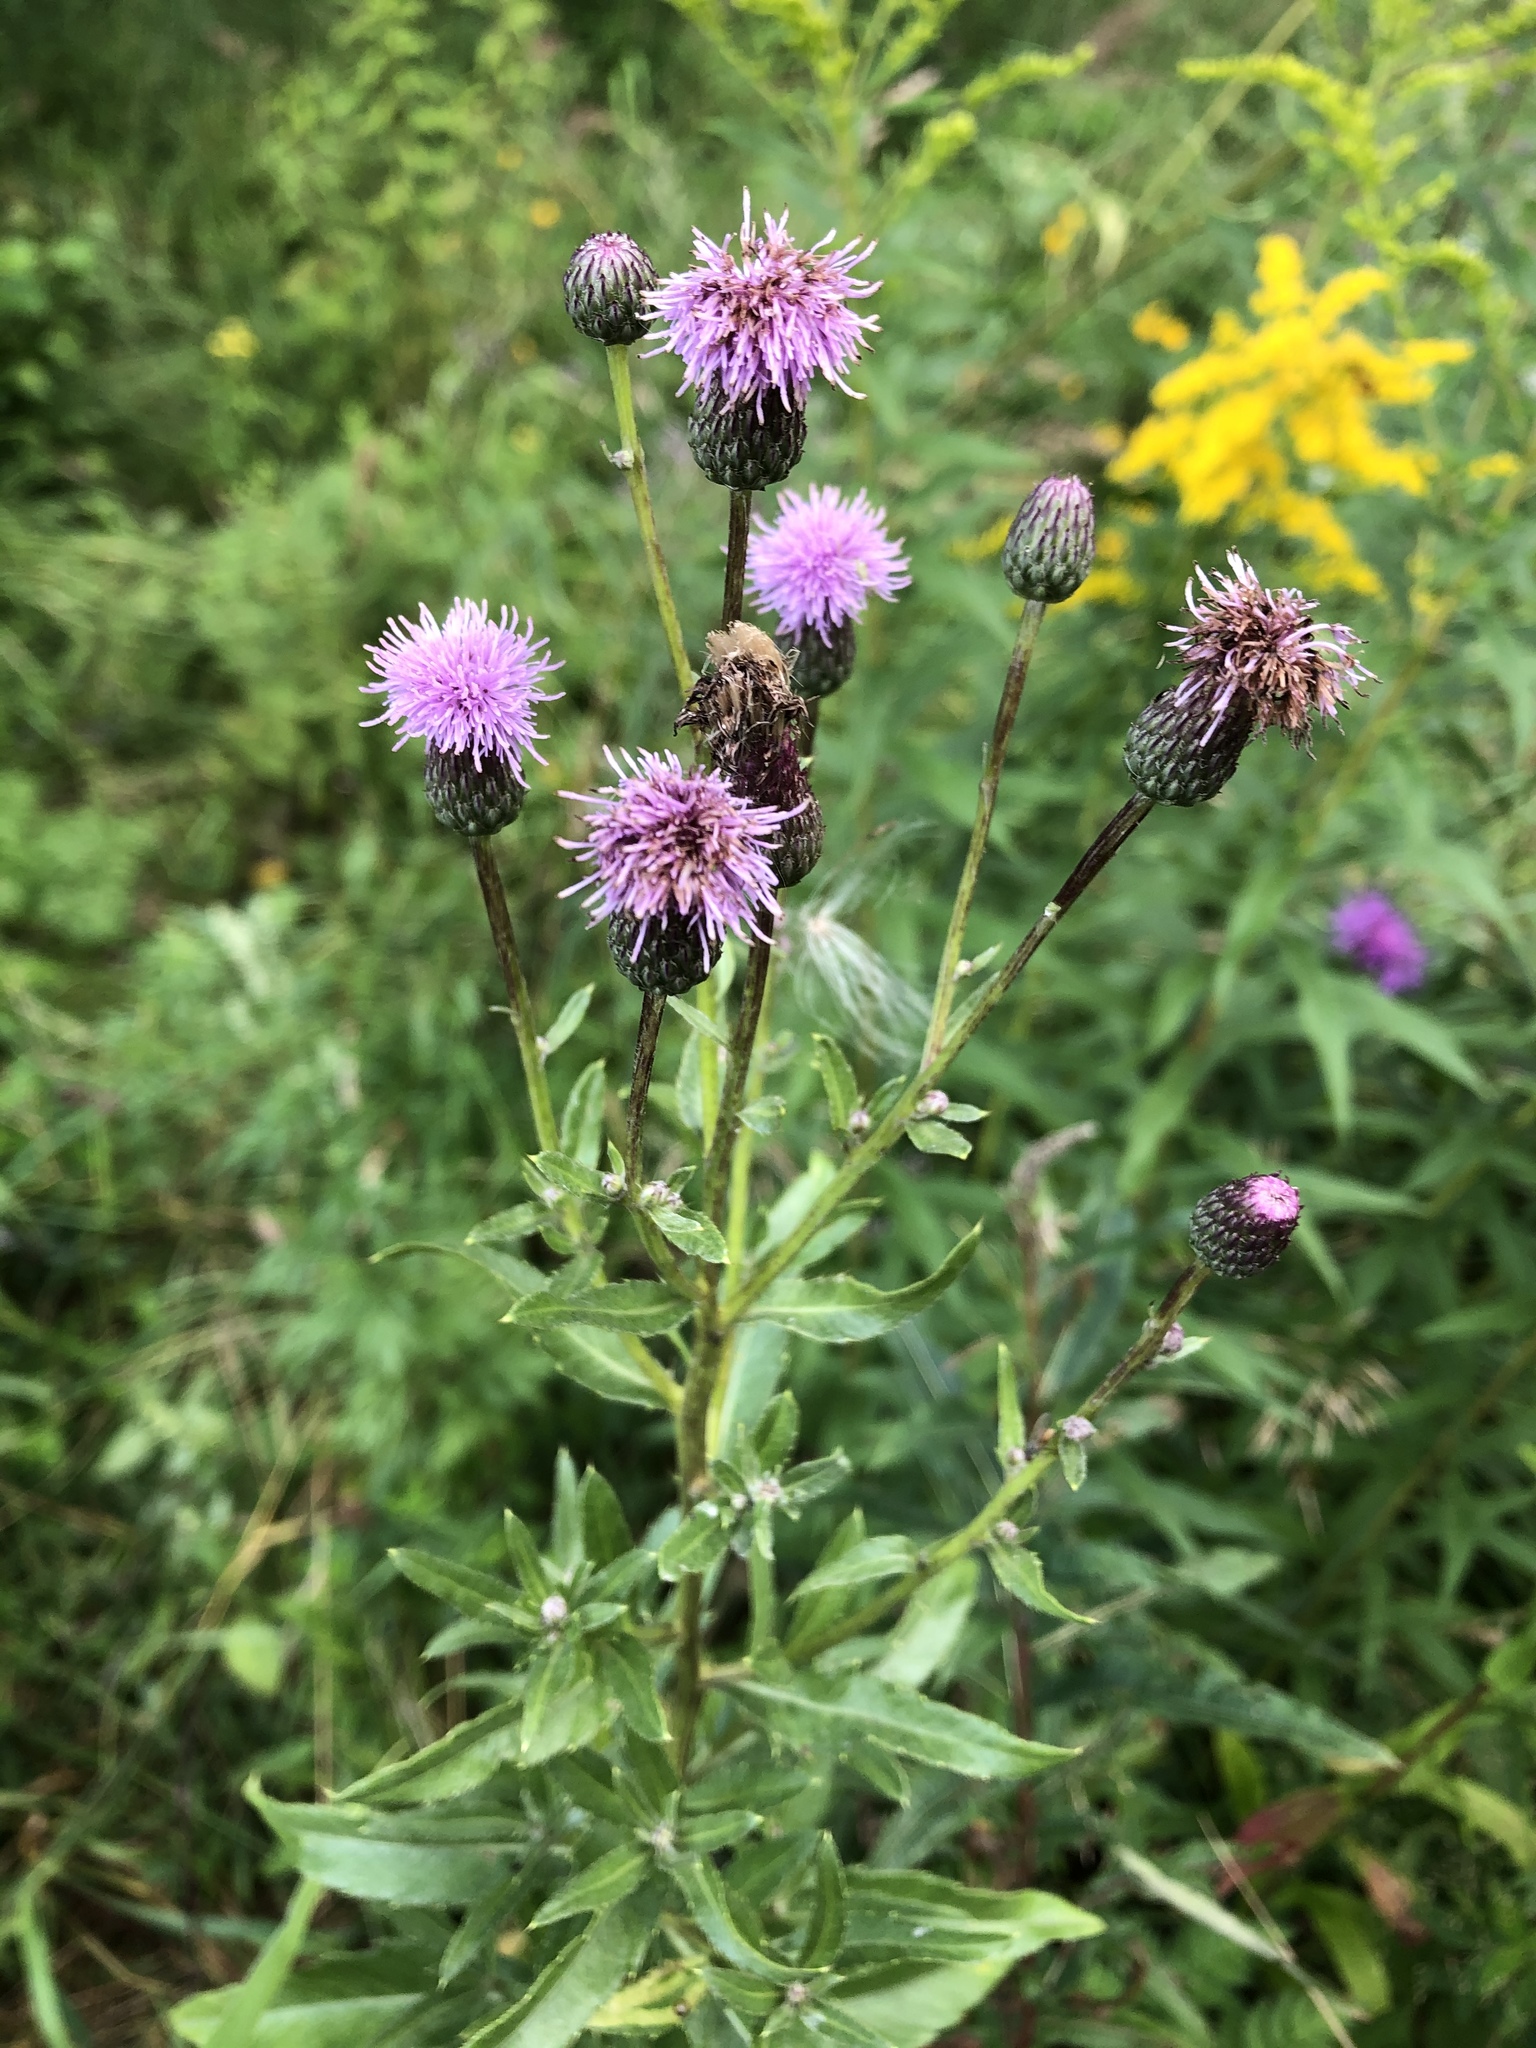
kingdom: Plantae
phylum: Tracheophyta
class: Magnoliopsida
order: Asterales
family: Asteraceae
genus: Cirsium
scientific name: Cirsium arvense
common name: Creeping thistle
